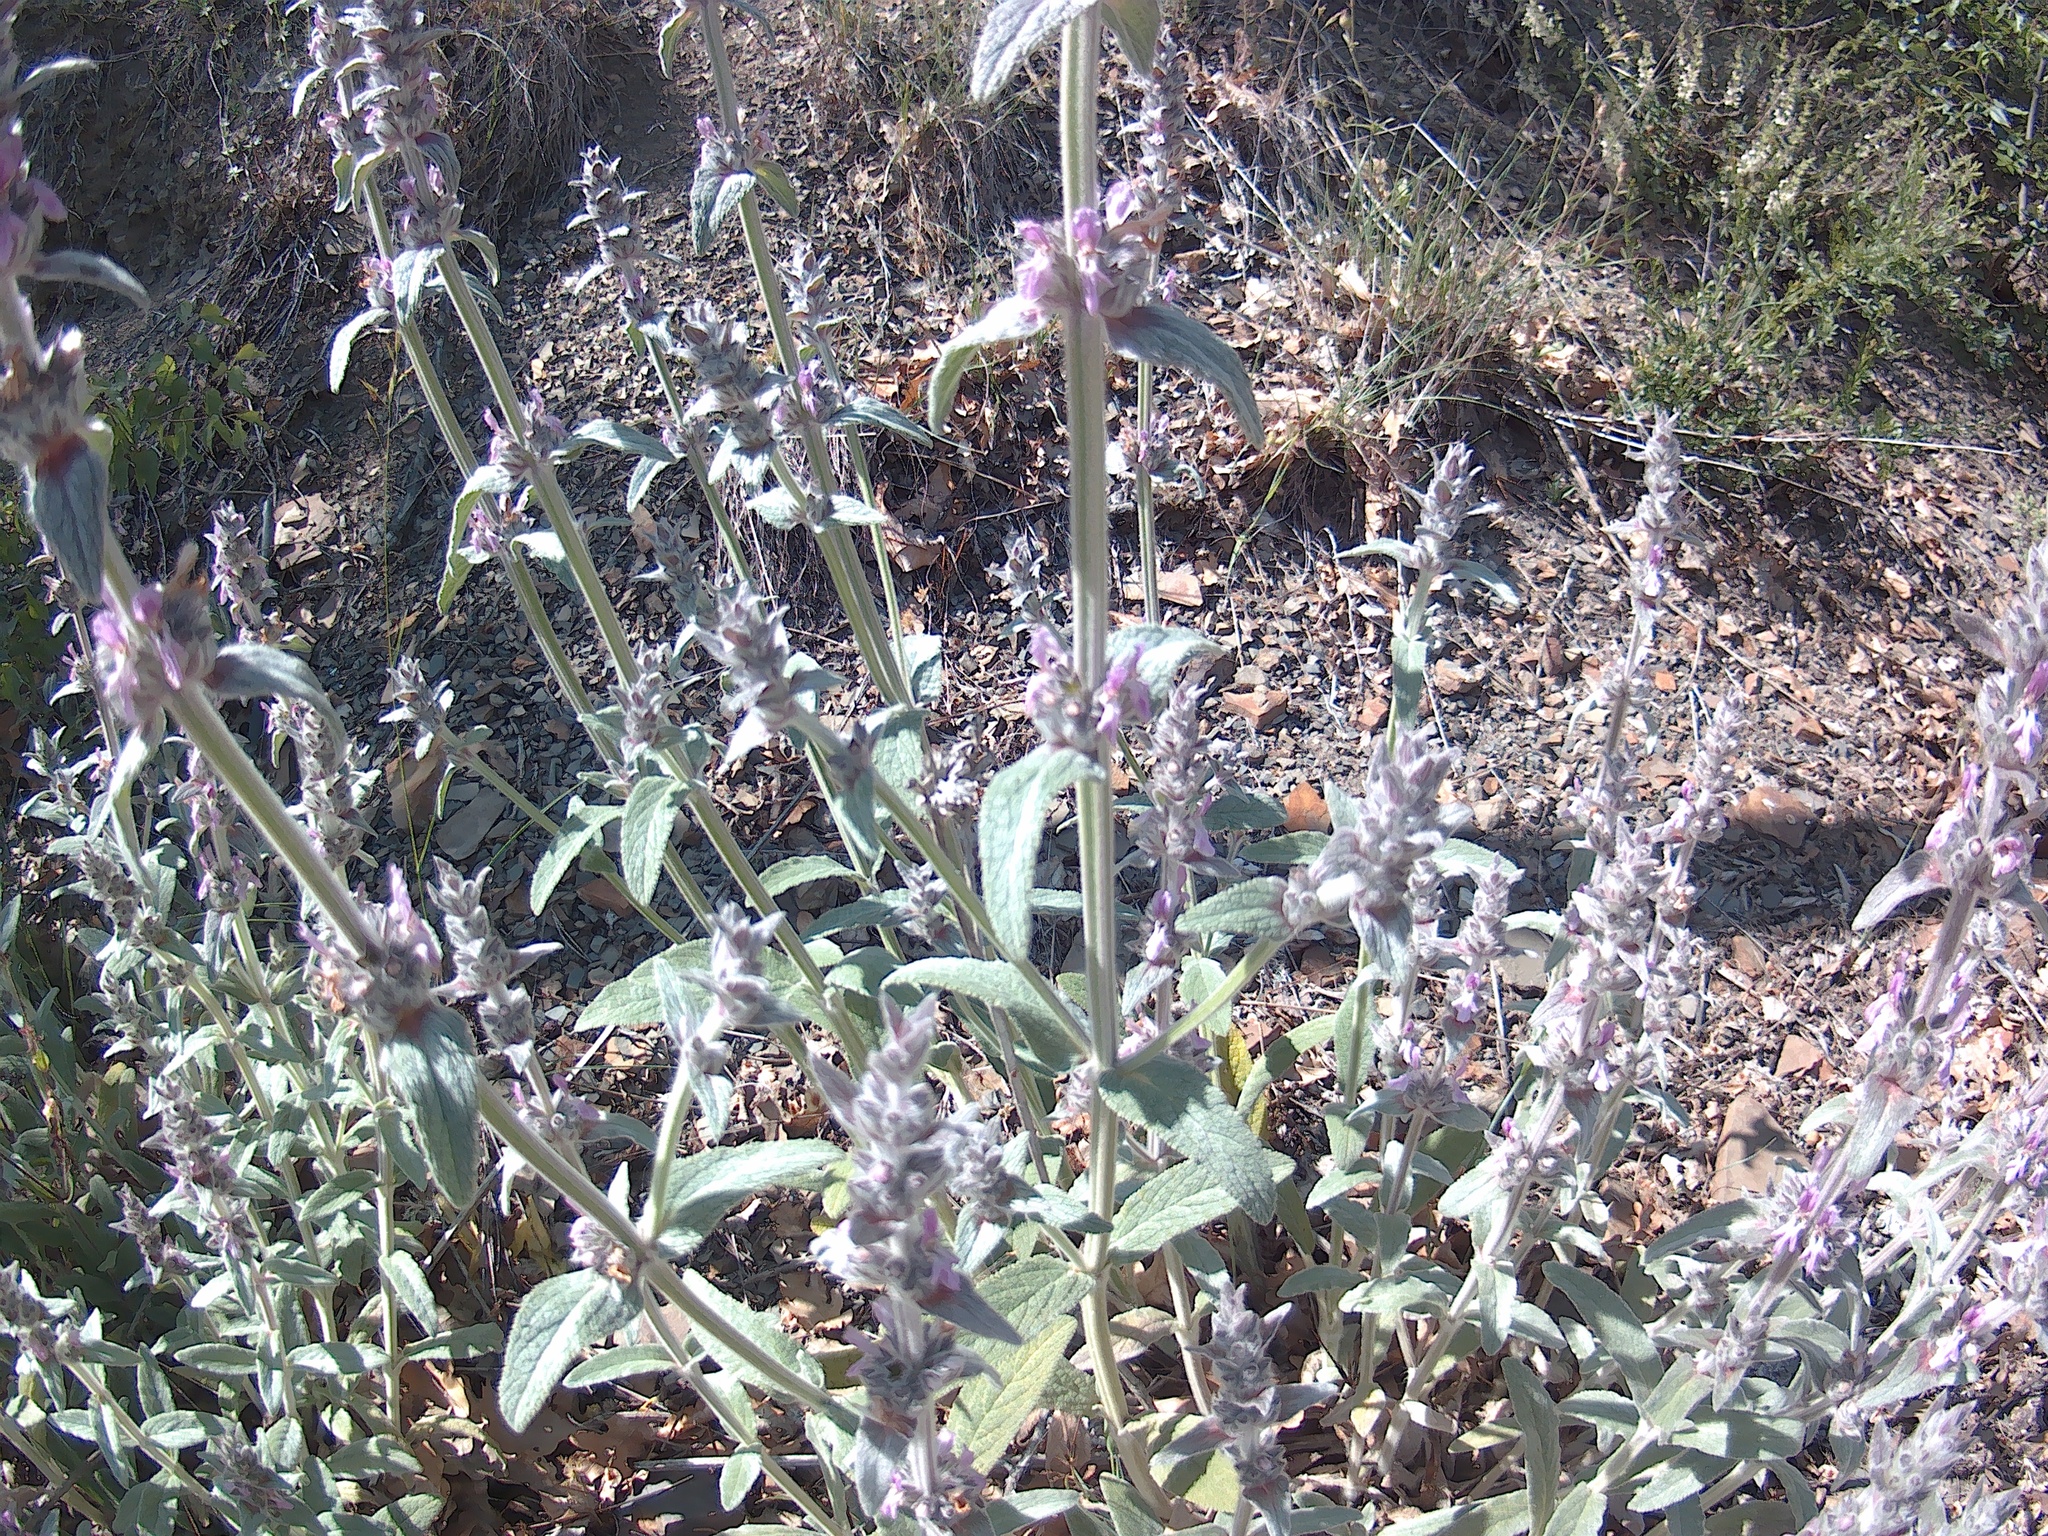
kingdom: Plantae
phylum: Tracheophyta
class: Magnoliopsida
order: Lamiales
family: Lamiaceae
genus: Stachys
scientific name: Stachys cretica
